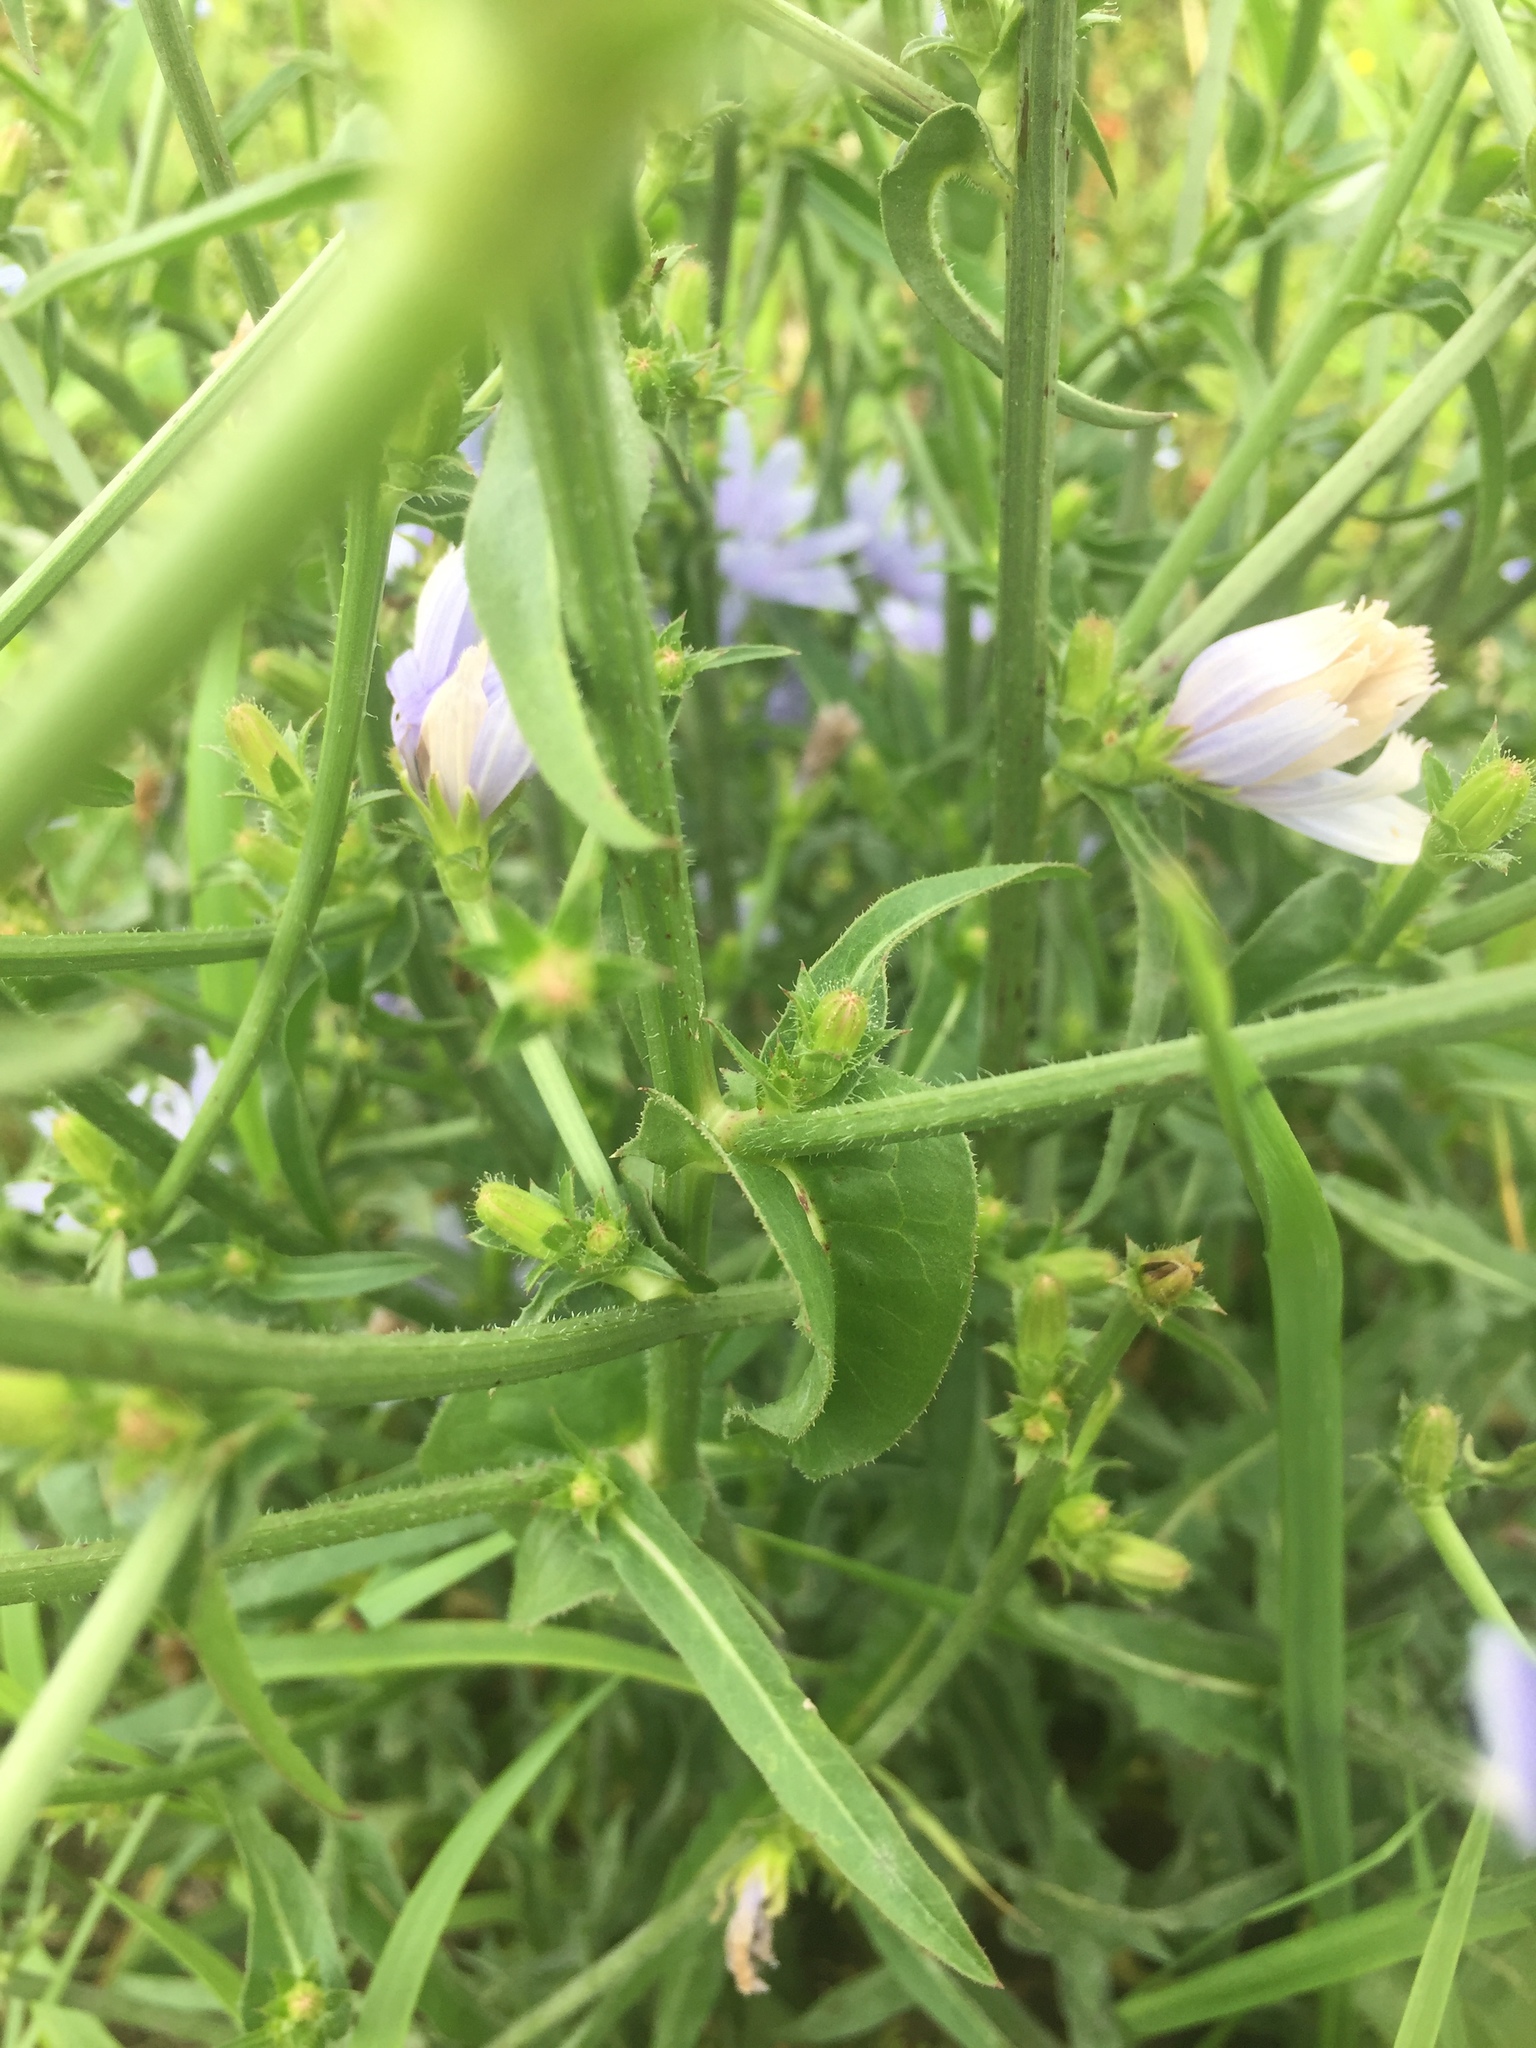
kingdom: Plantae
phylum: Tracheophyta
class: Magnoliopsida
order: Asterales
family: Asteraceae
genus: Cichorium
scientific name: Cichorium intybus
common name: Chicory
